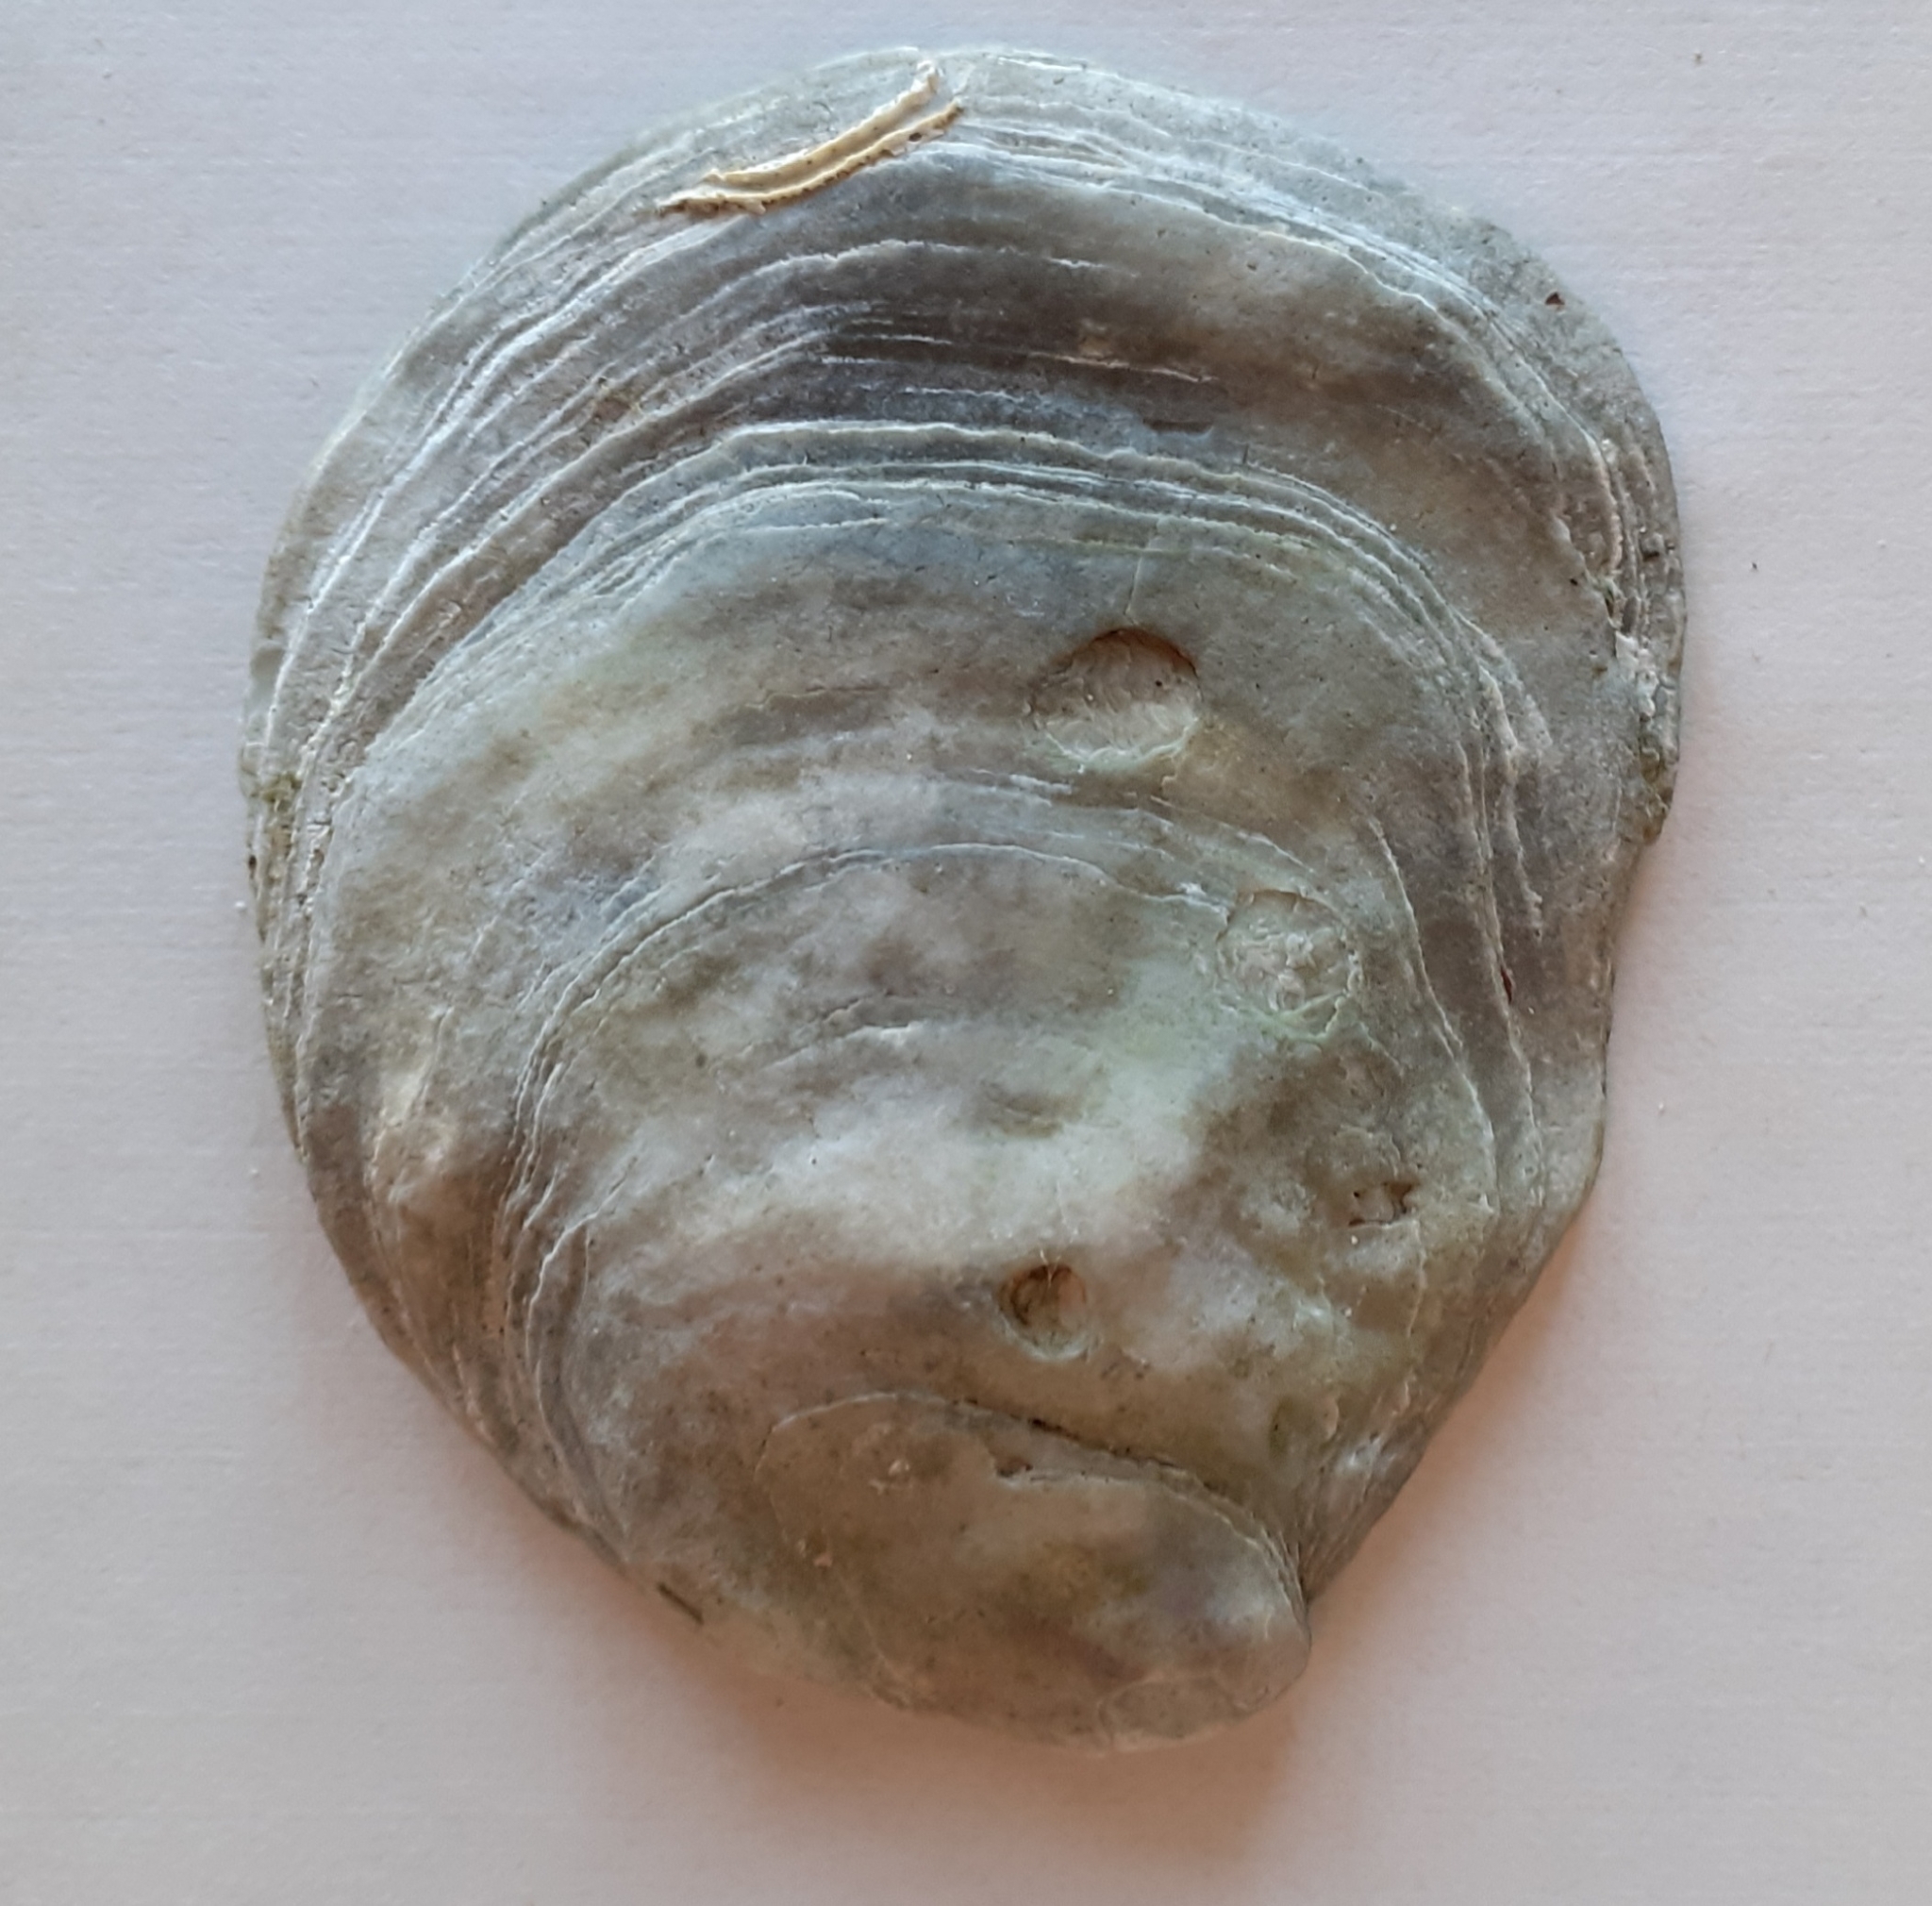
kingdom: Animalia
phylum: Mollusca
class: Bivalvia
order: Ostreida
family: Ostreidae
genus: Ostrea
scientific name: Ostrea edulis
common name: Flat oyster
